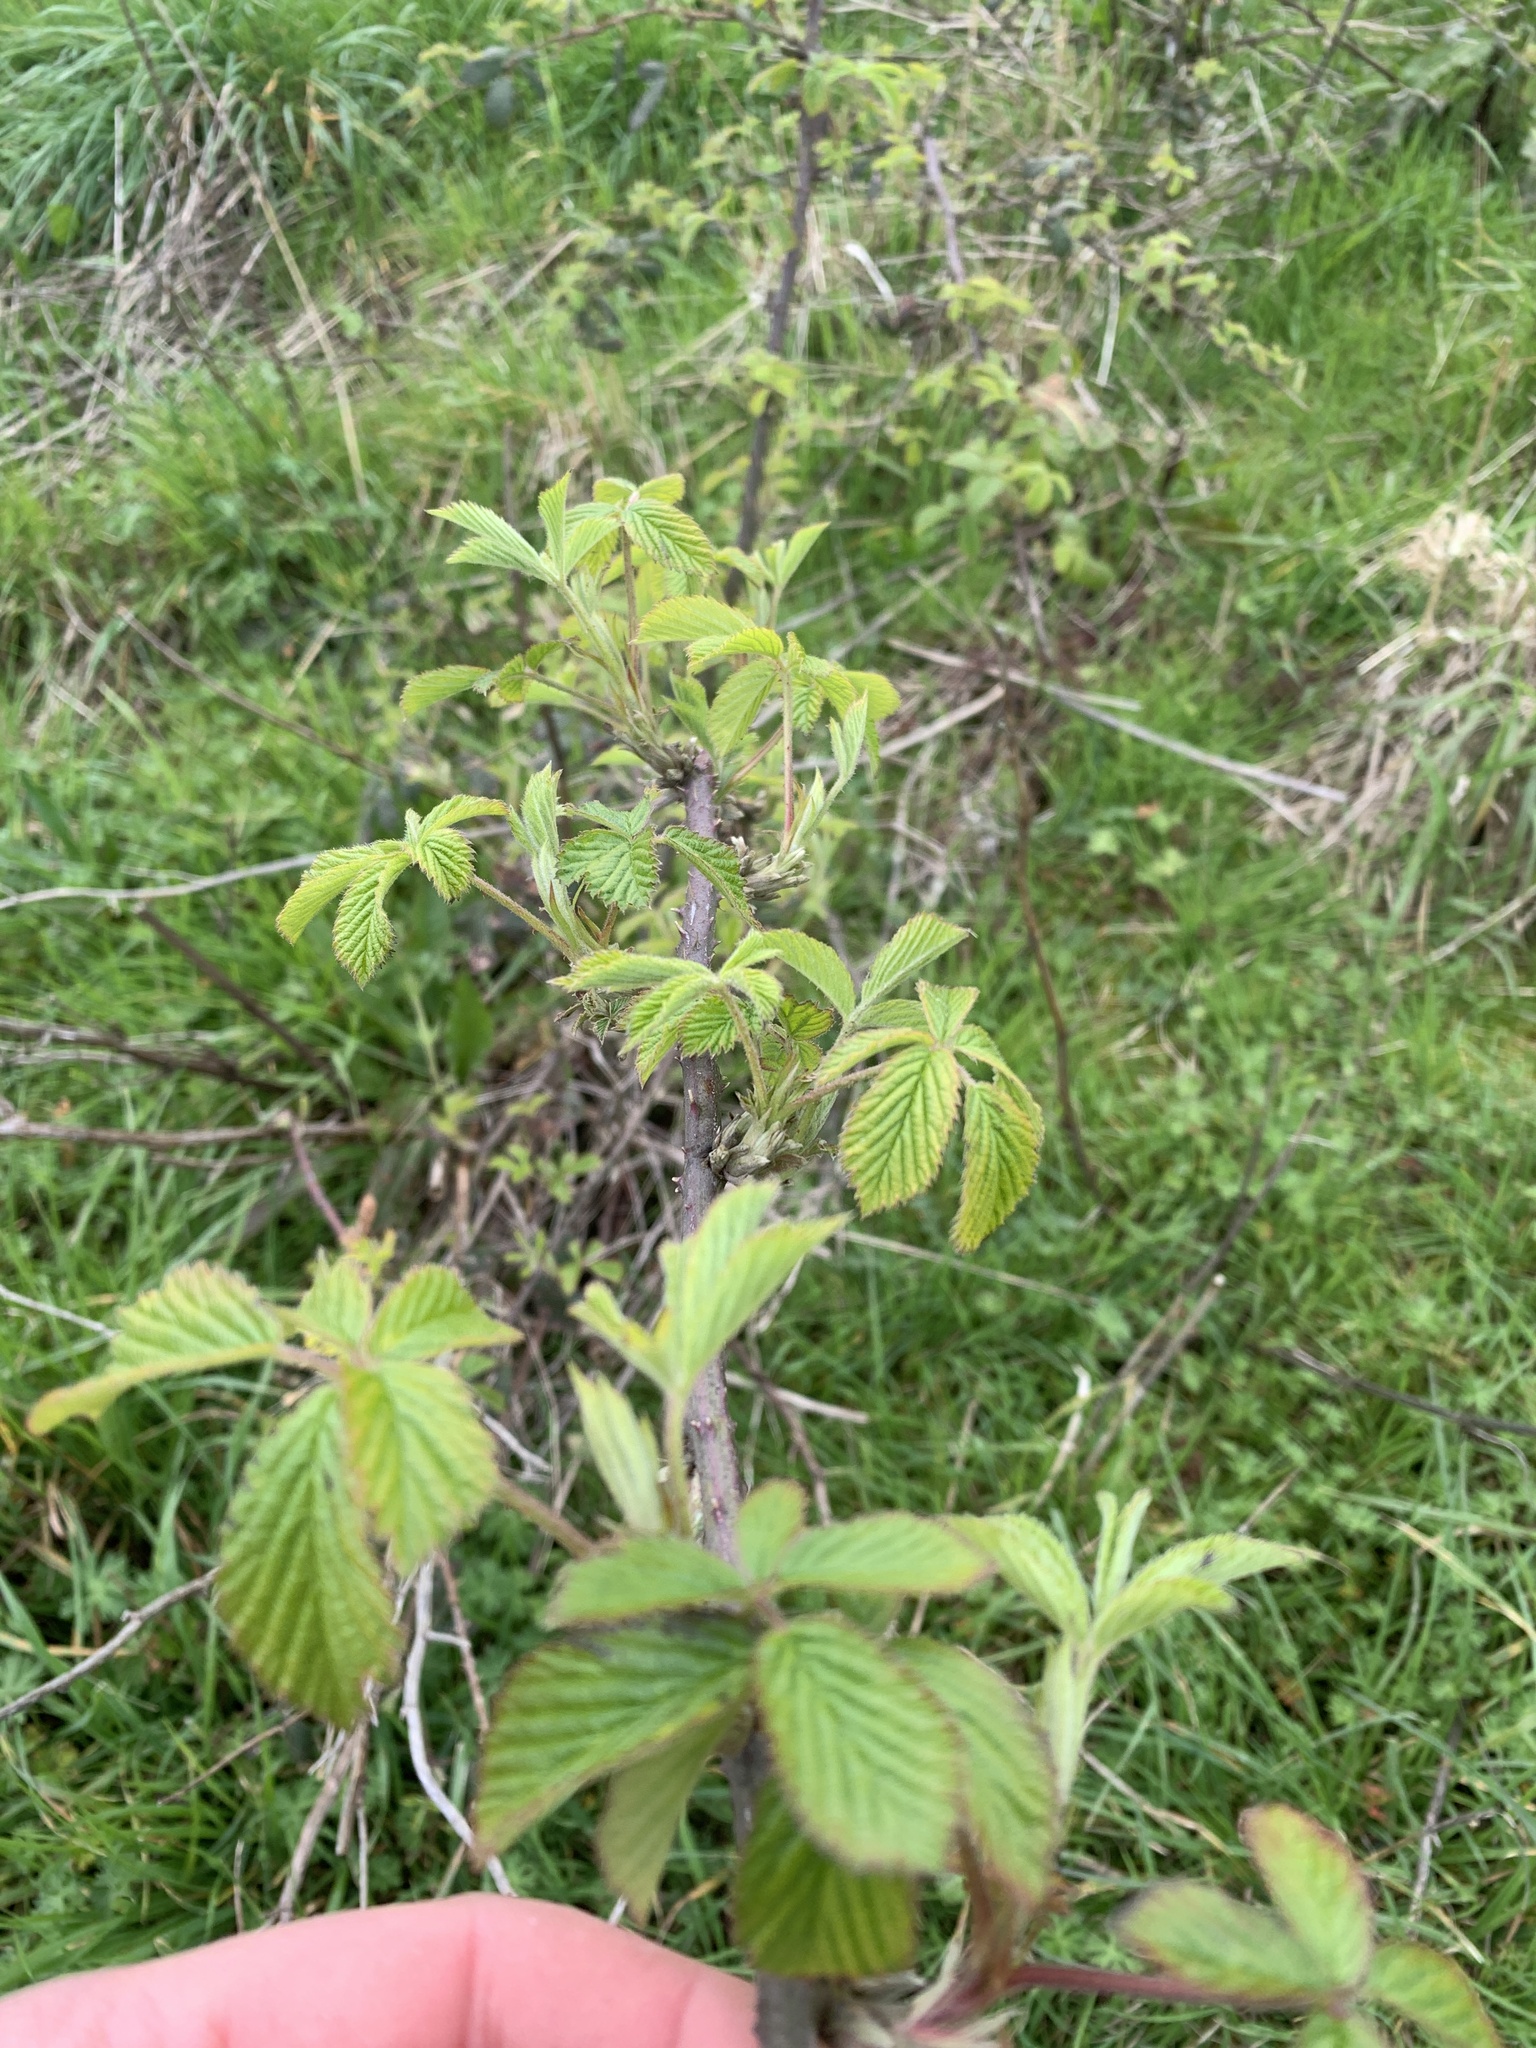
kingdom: Plantae
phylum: Tracheophyta
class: Magnoliopsida
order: Rosales
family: Rosaceae
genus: Rubus
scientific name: Rubus fruticosus
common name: Blackberry, bramble
